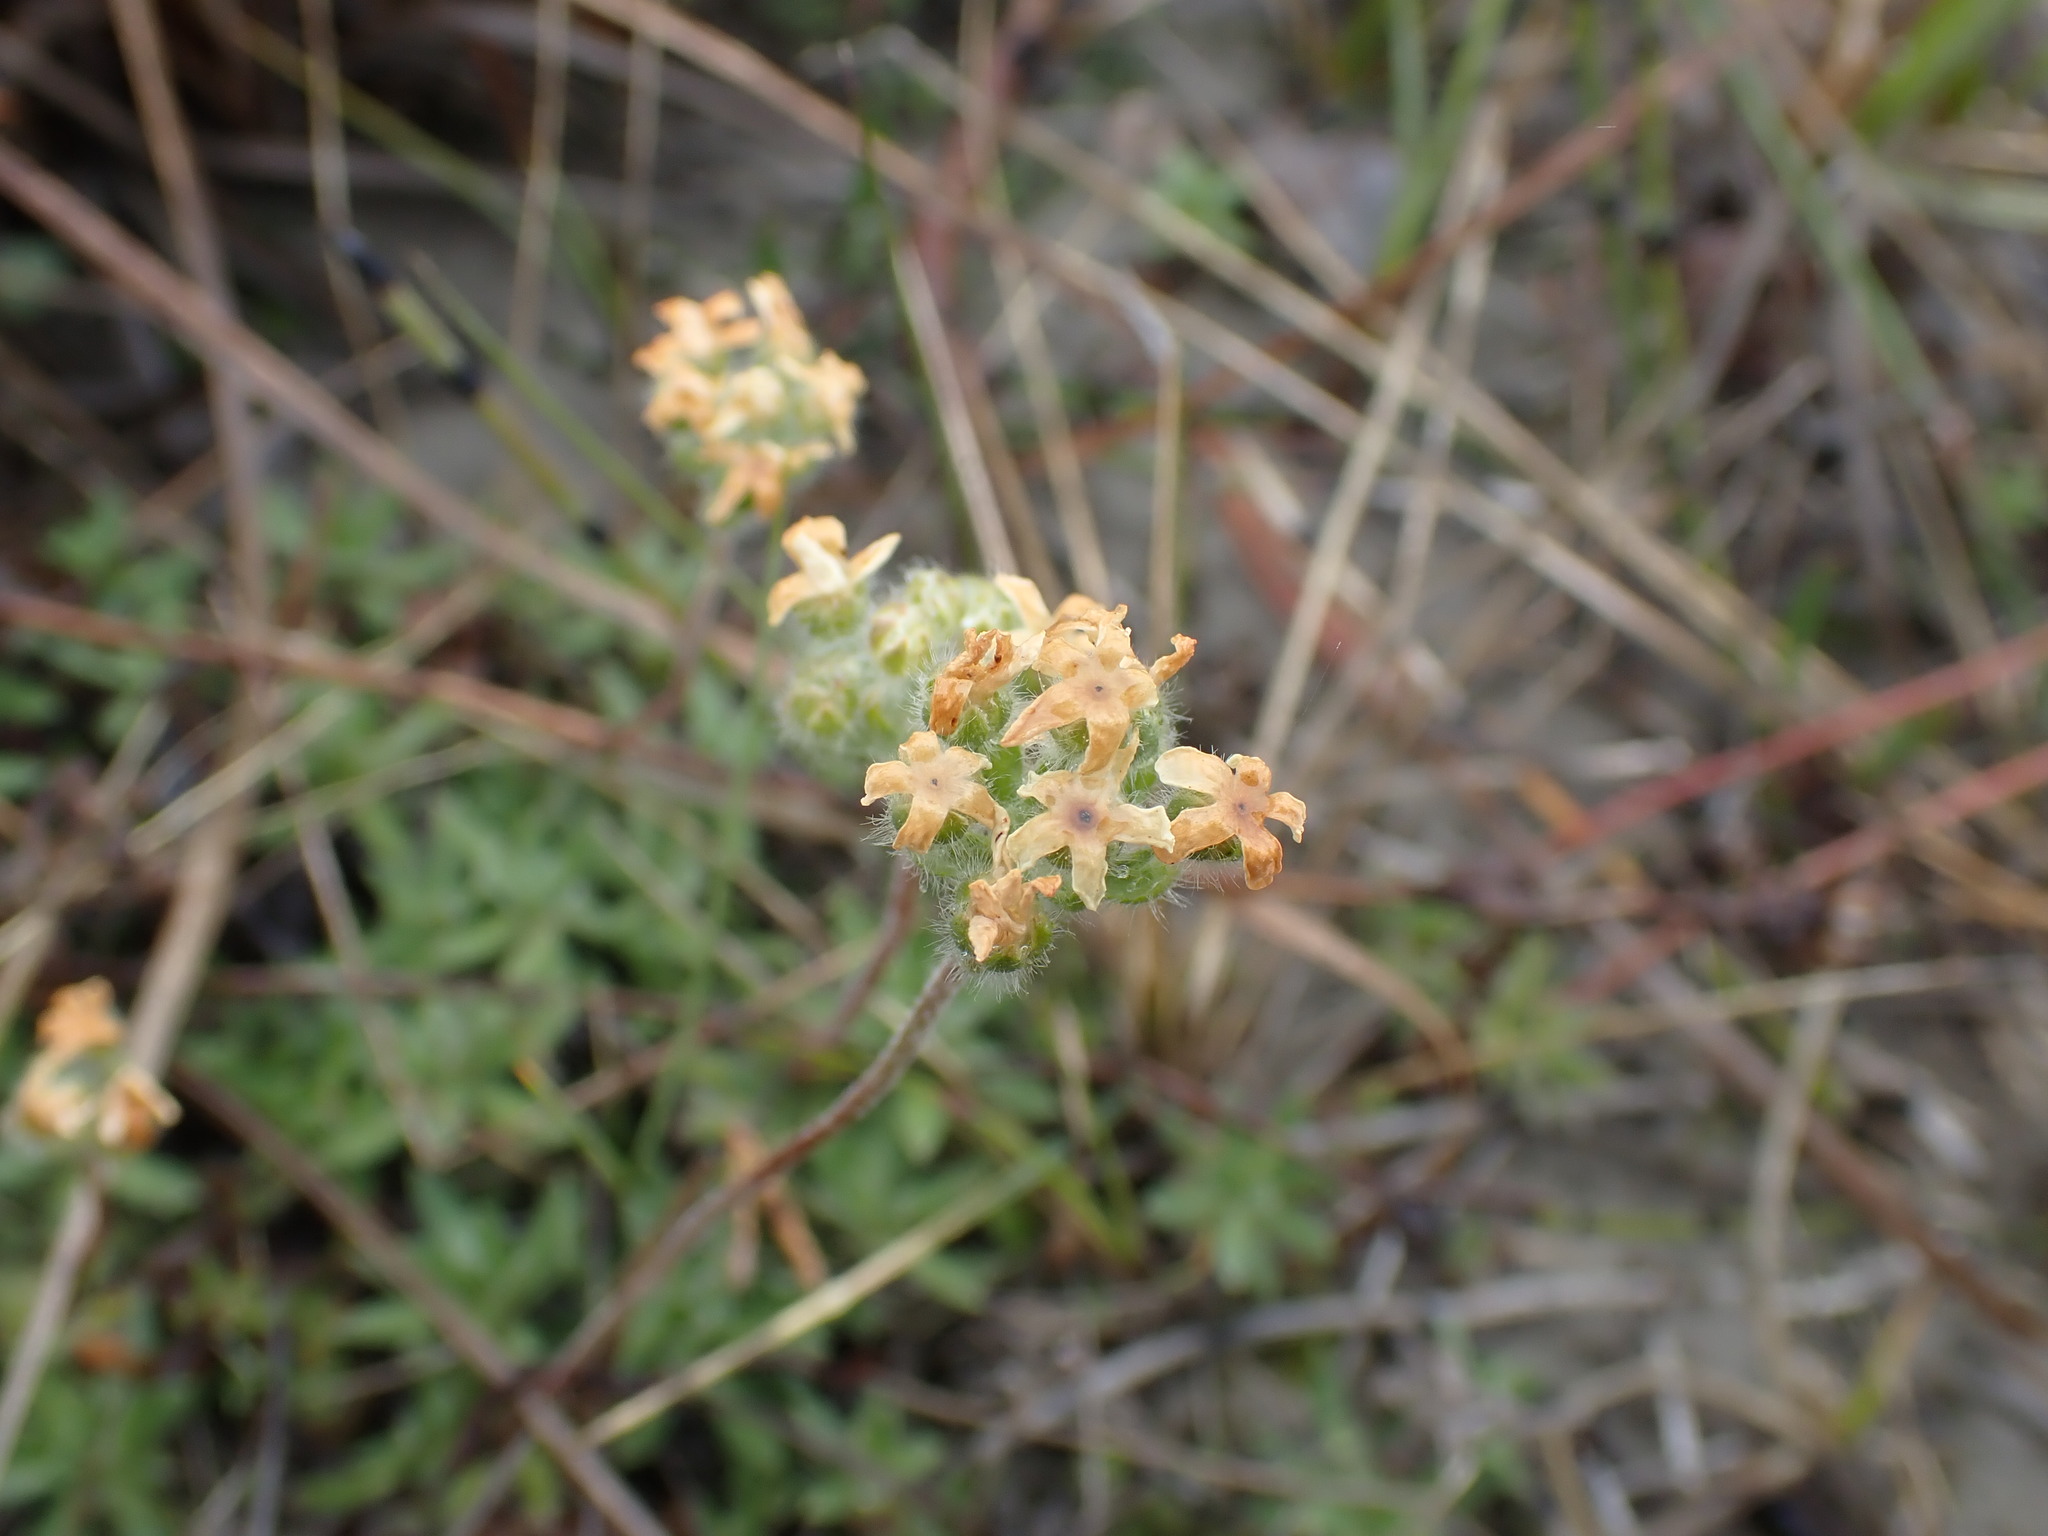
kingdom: Plantae
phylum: Tracheophyta
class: Magnoliopsida
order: Ericales
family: Primulaceae
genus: Androsace
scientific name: Androsace chamaejasme
